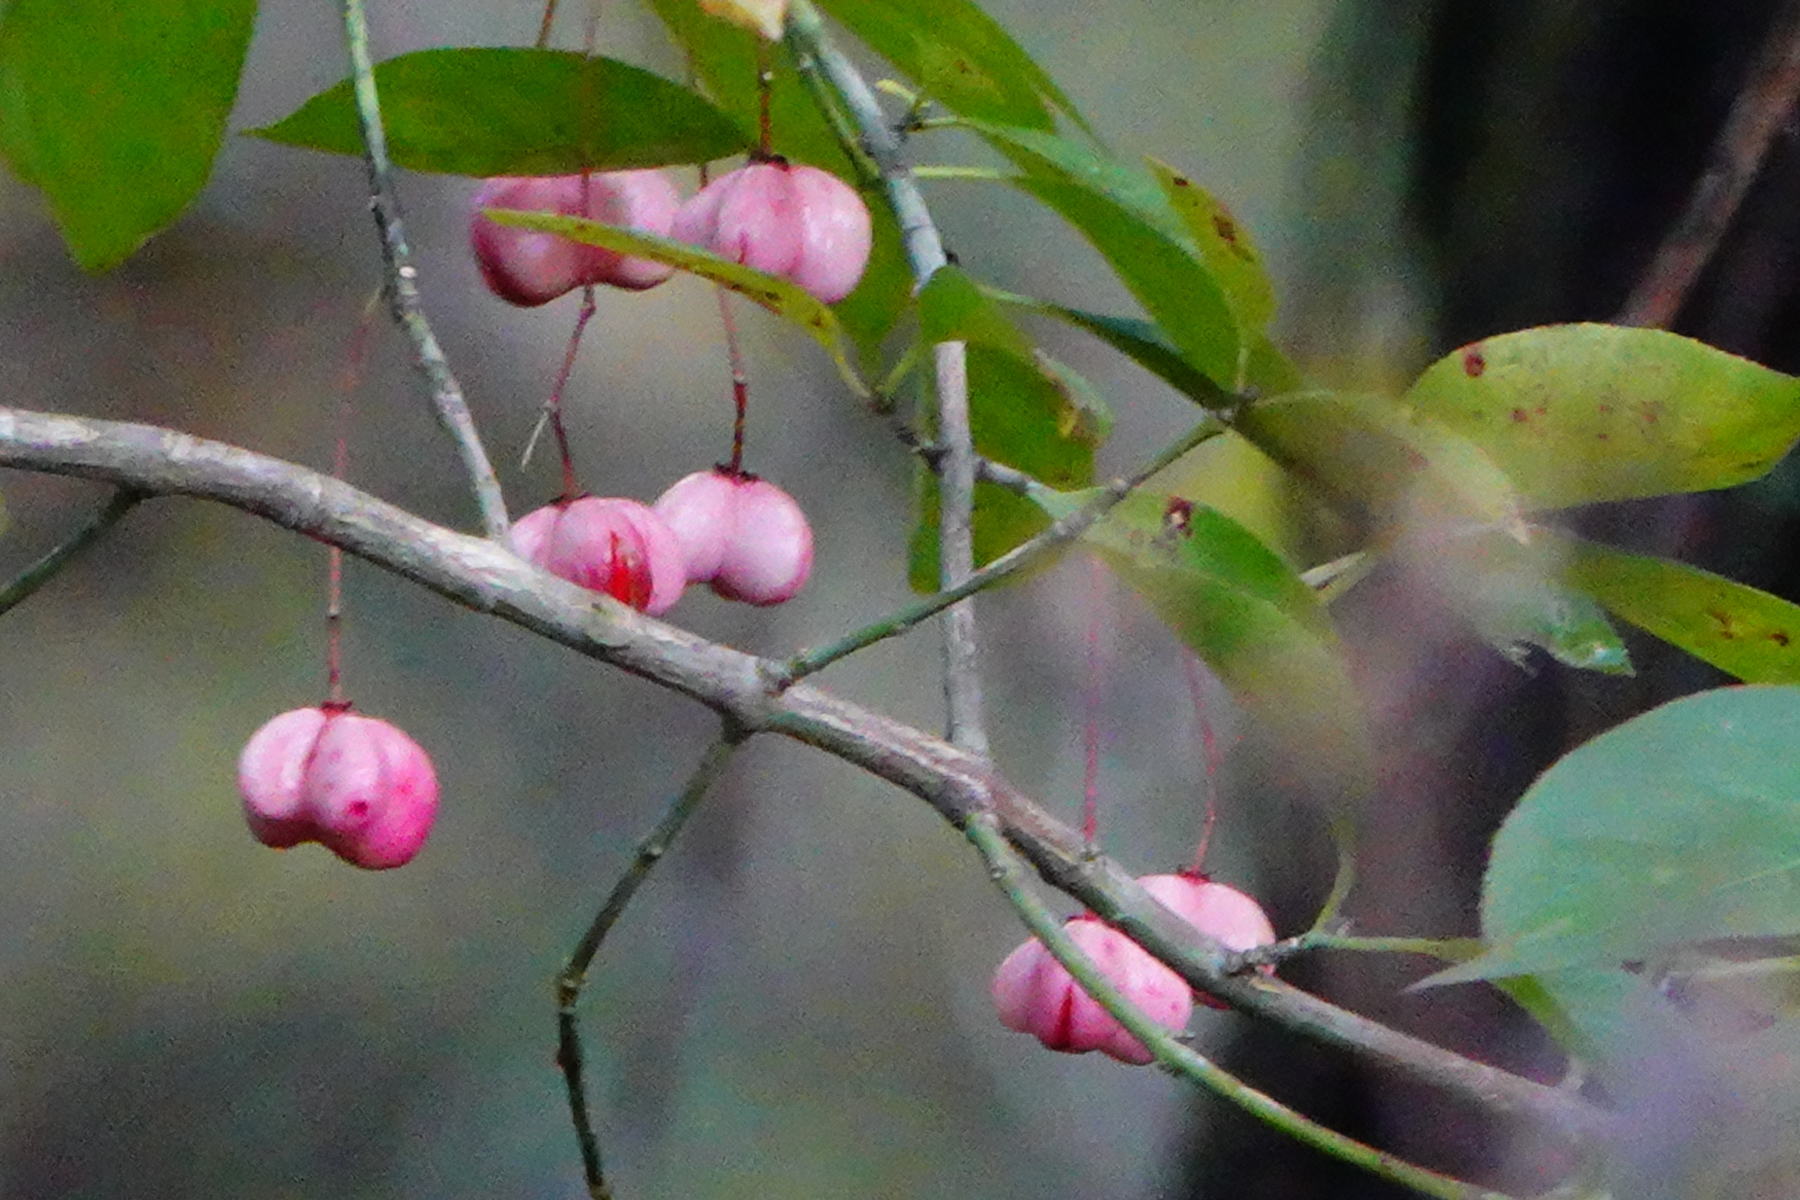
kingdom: Plantae
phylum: Tracheophyta
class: Magnoliopsida
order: Celastrales
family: Celastraceae
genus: Euonymus
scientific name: Euonymus atropurpureus
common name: Eastern wahoo
